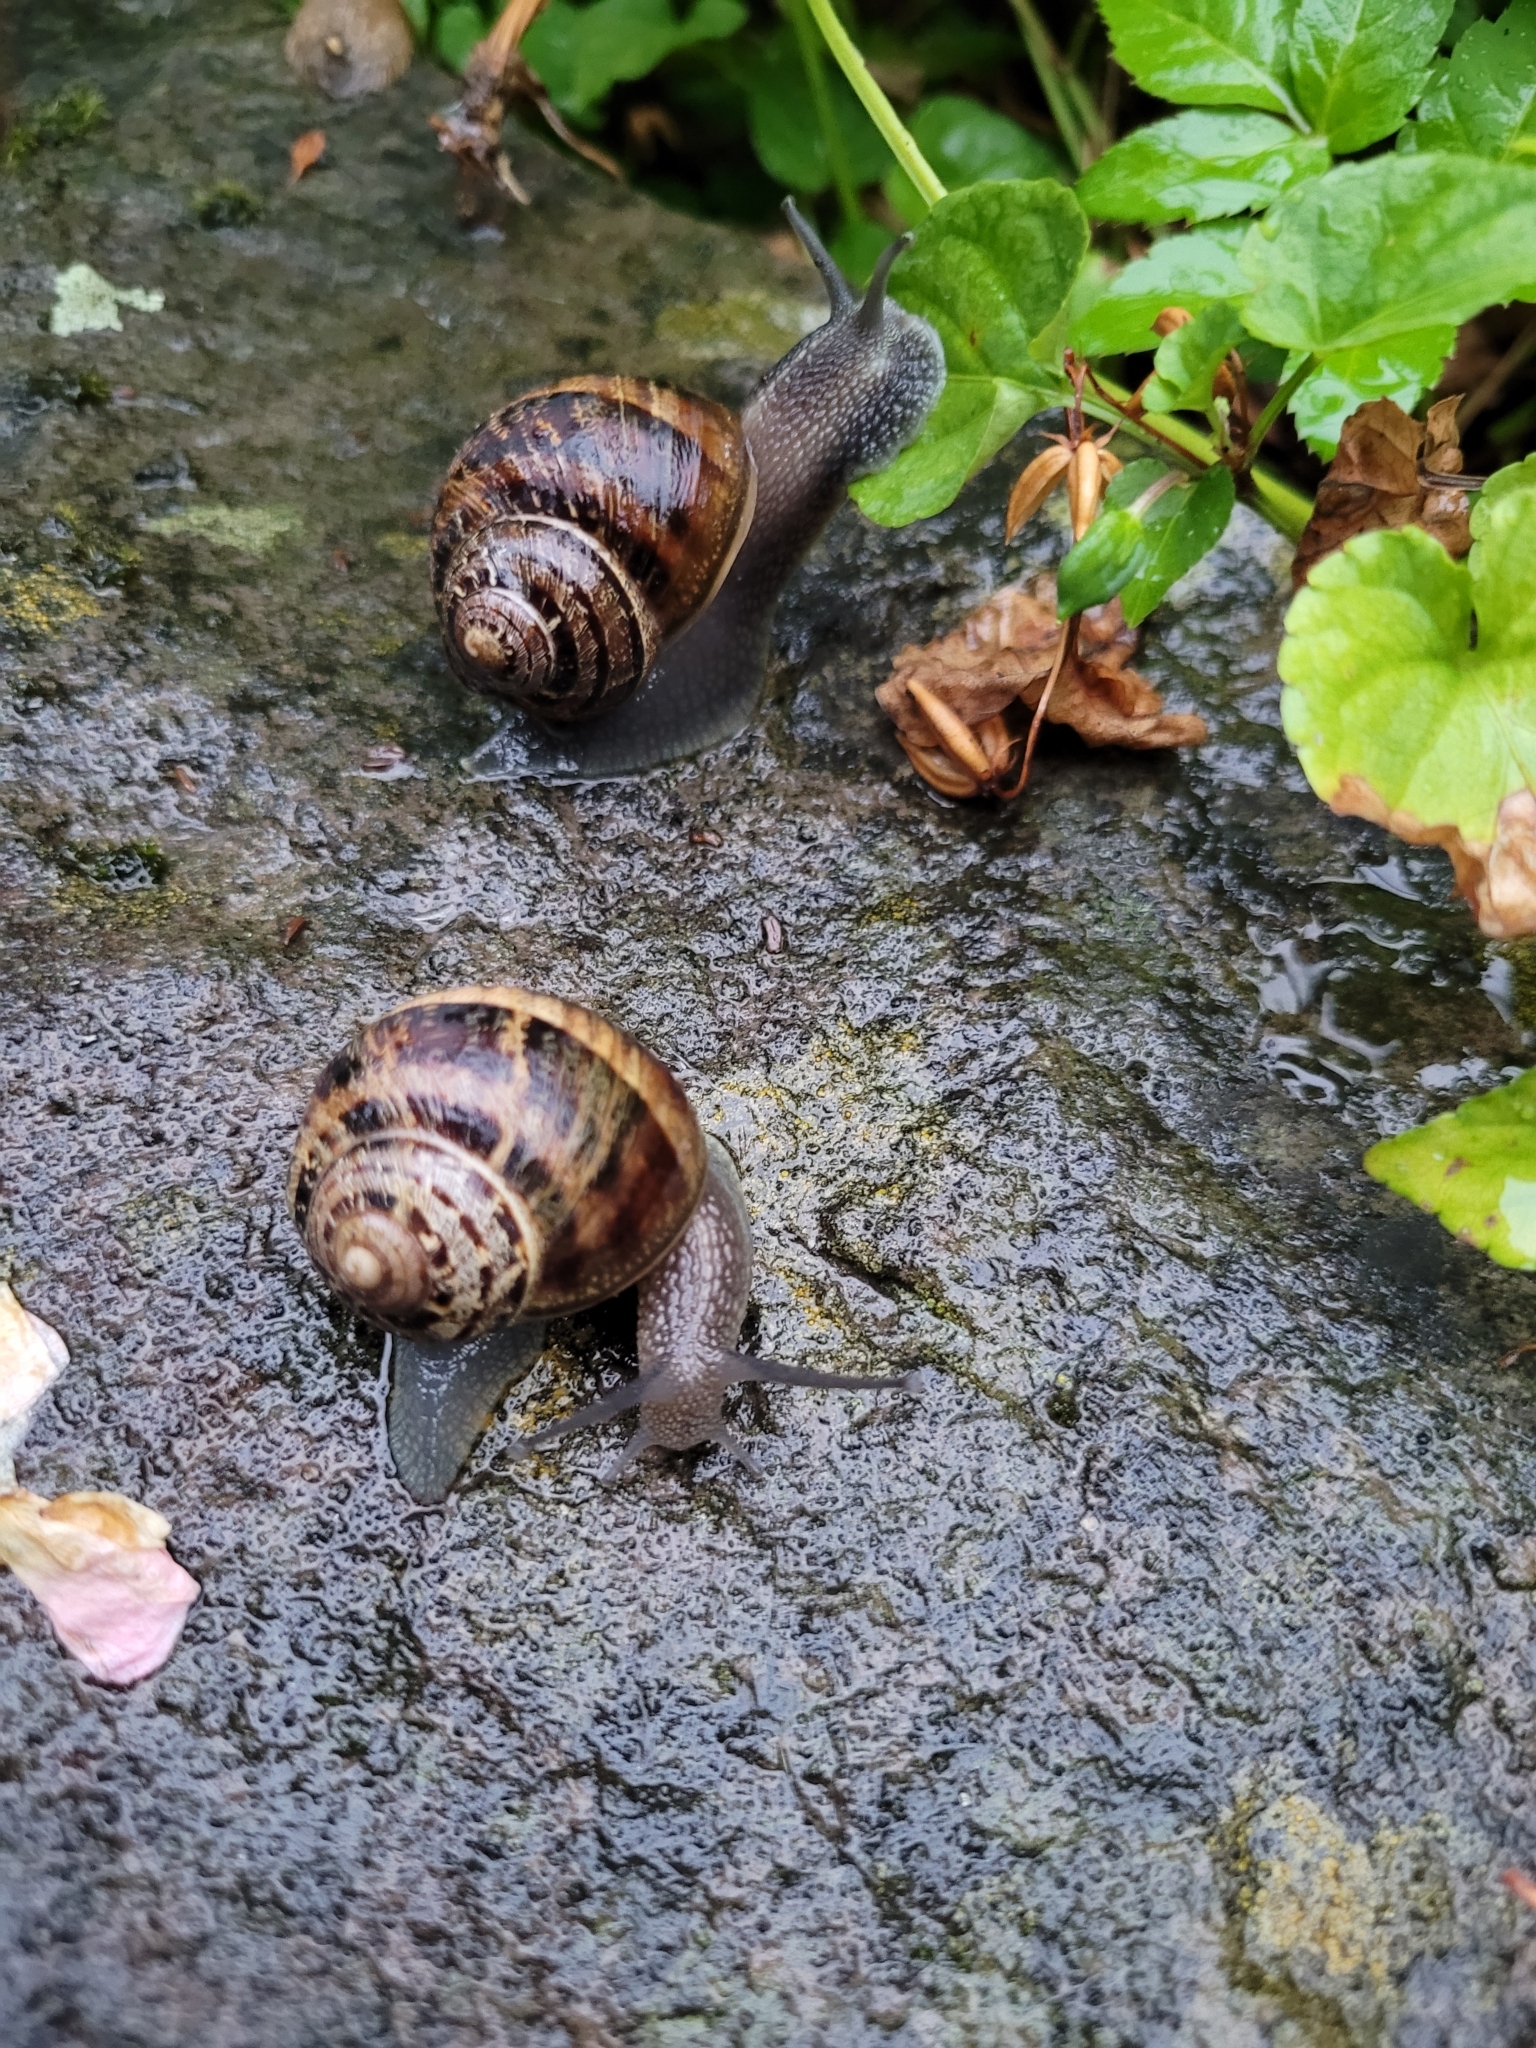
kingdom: Animalia
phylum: Mollusca
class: Gastropoda
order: Stylommatophora
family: Helicidae
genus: Cornu
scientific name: Cornu aspersum
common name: Brown garden snail
